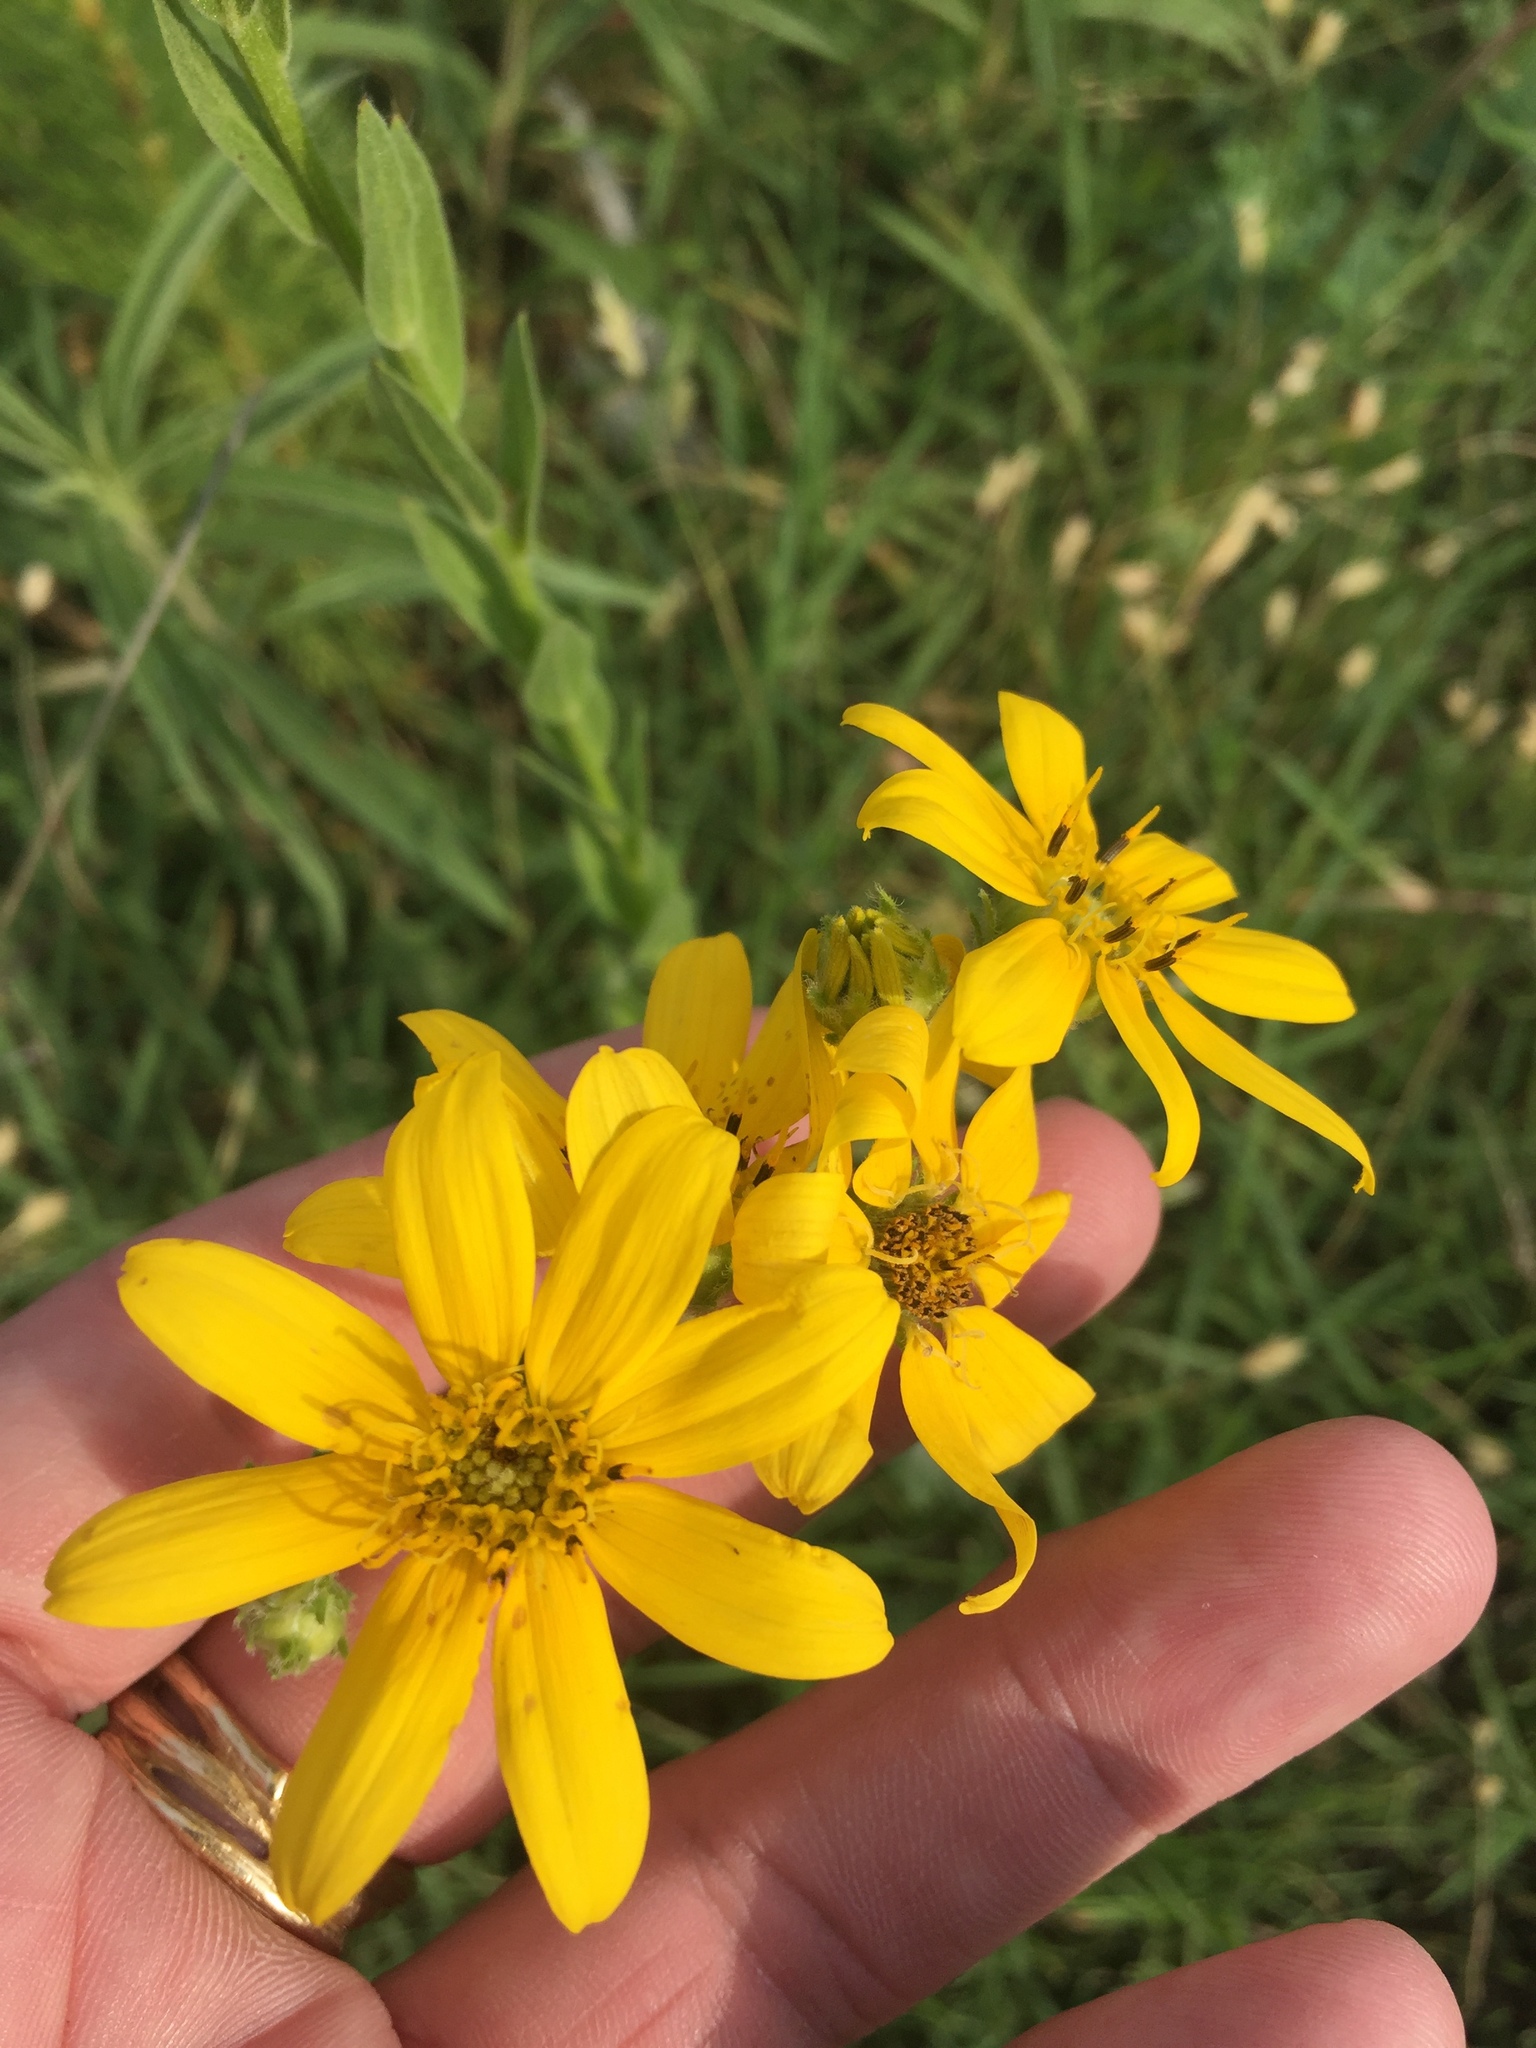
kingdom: Plantae
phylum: Tracheophyta
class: Magnoliopsida
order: Asterales
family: Asteraceae
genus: Engelmannia
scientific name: Engelmannia peristenia
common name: Engelmann's daisy
